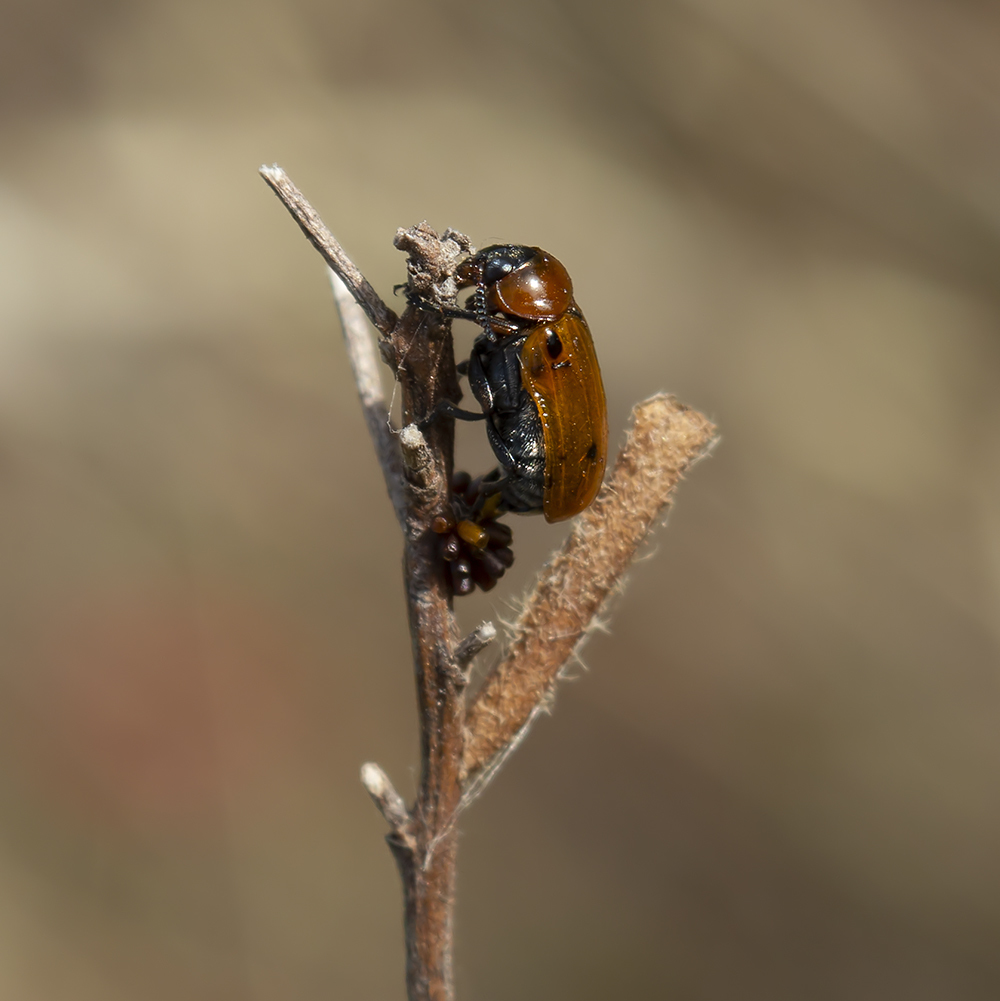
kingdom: Animalia
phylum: Arthropoda
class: Insecta
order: Coleoptera
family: Chrysomelidae
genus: Macrolenes
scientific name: Macrolenes dentipes
